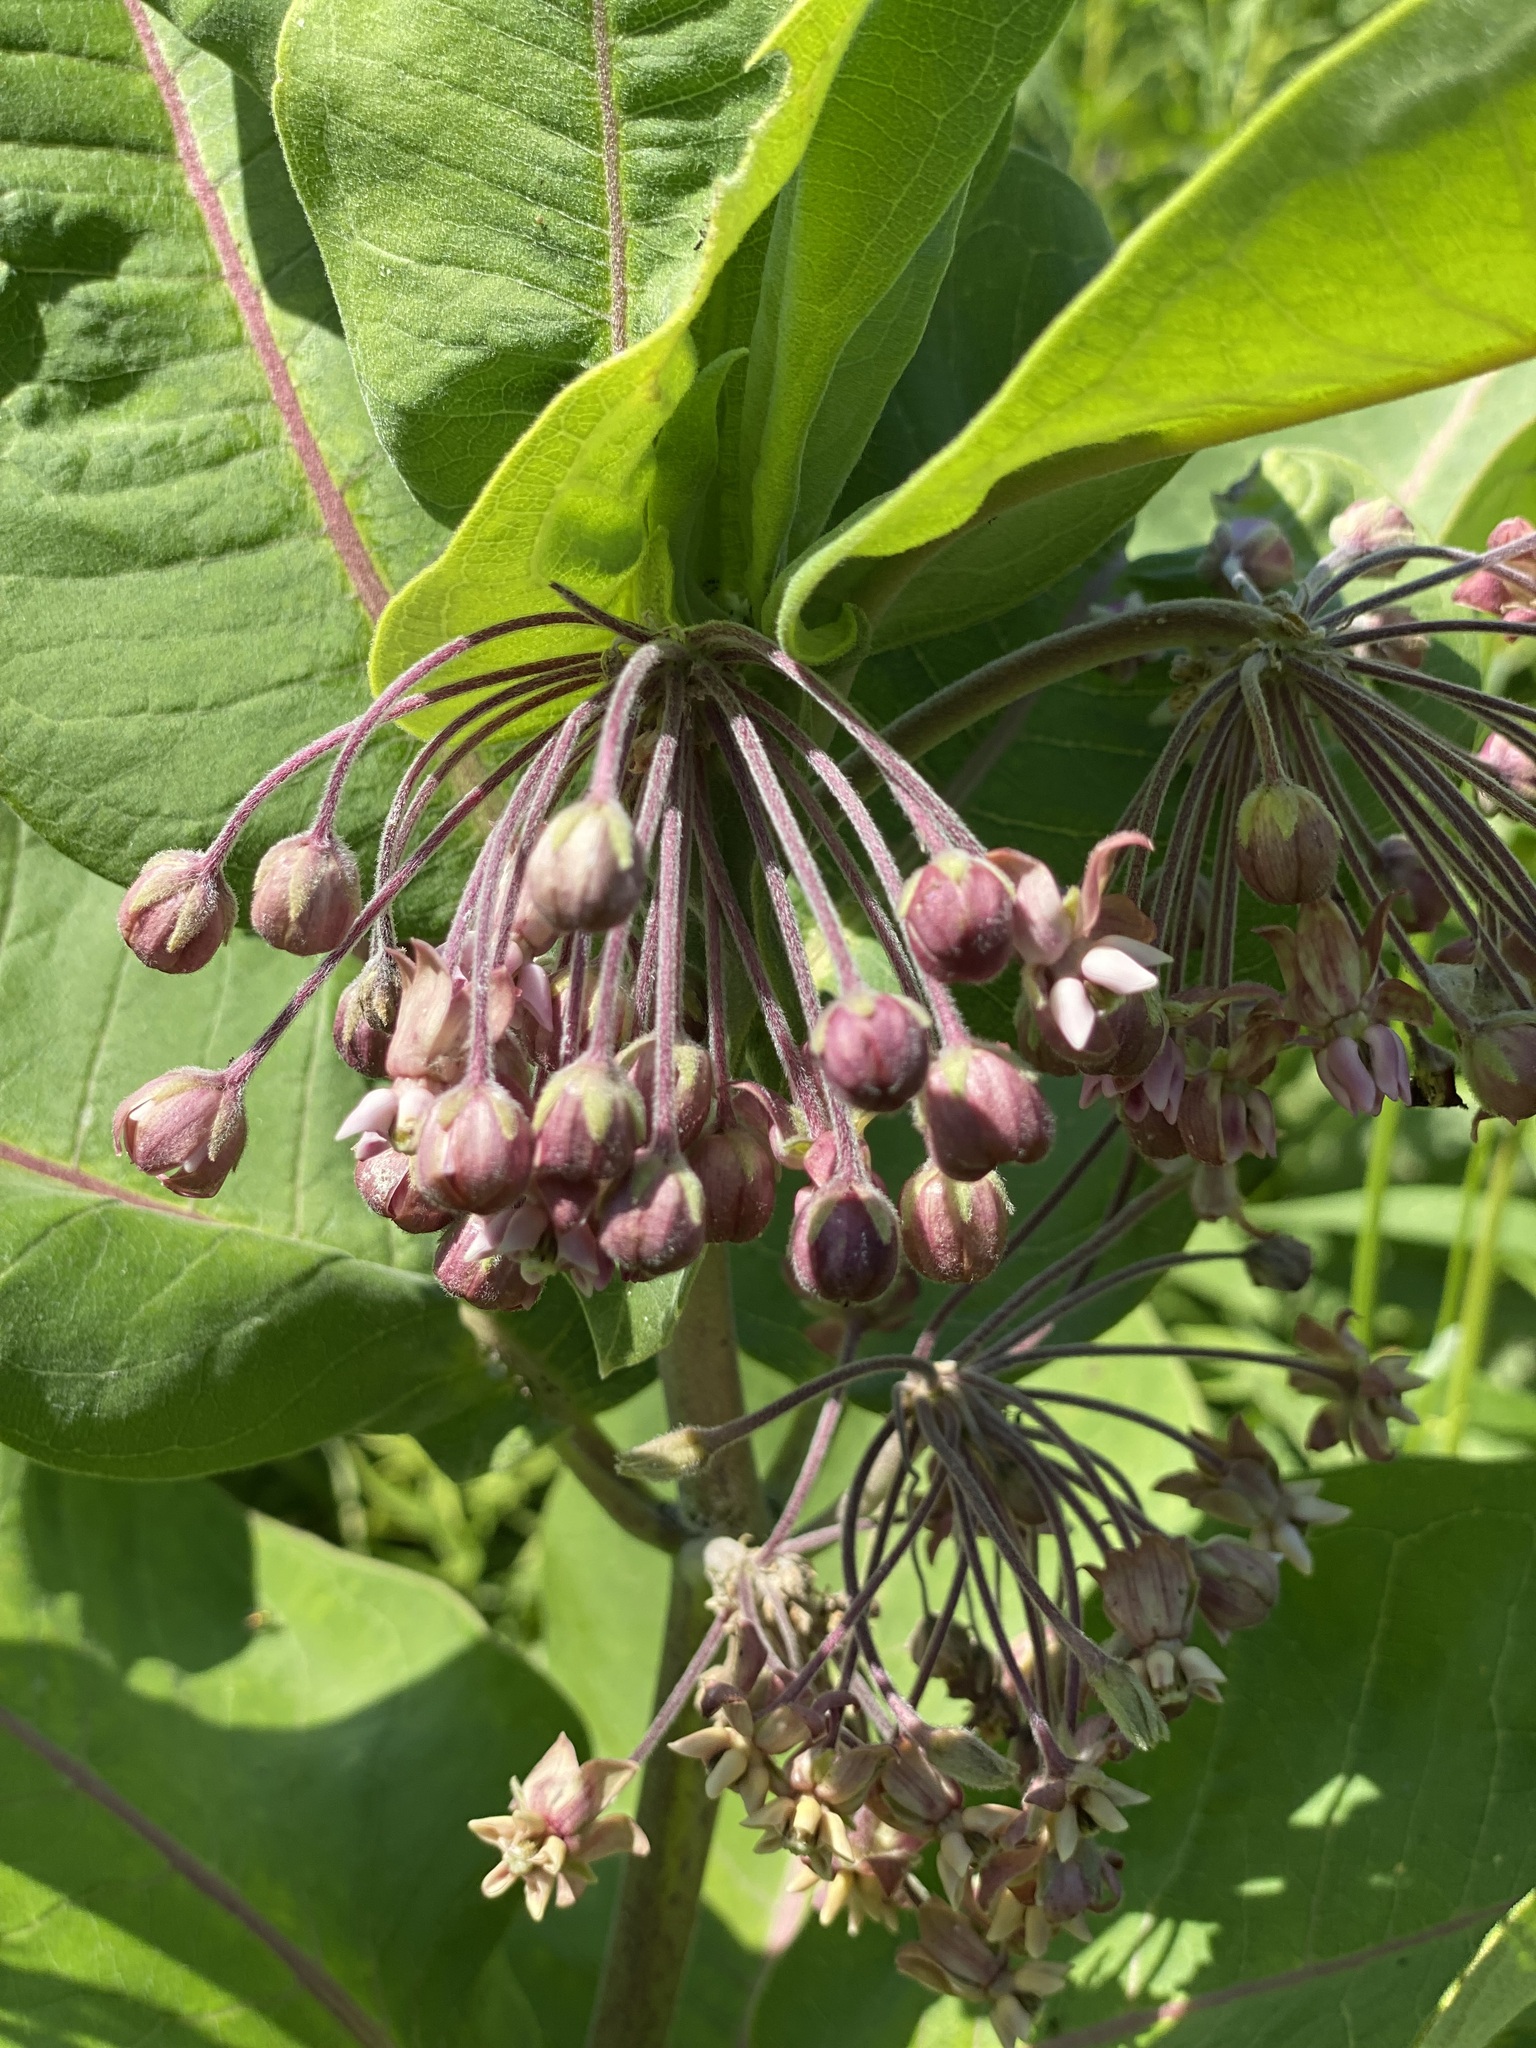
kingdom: Plantae
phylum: Tracheophyta
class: Magnoliopsida
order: Gentianales
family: Apocynaceae
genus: Asclepias
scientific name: Asclepias syriaca
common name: Common milkweed
